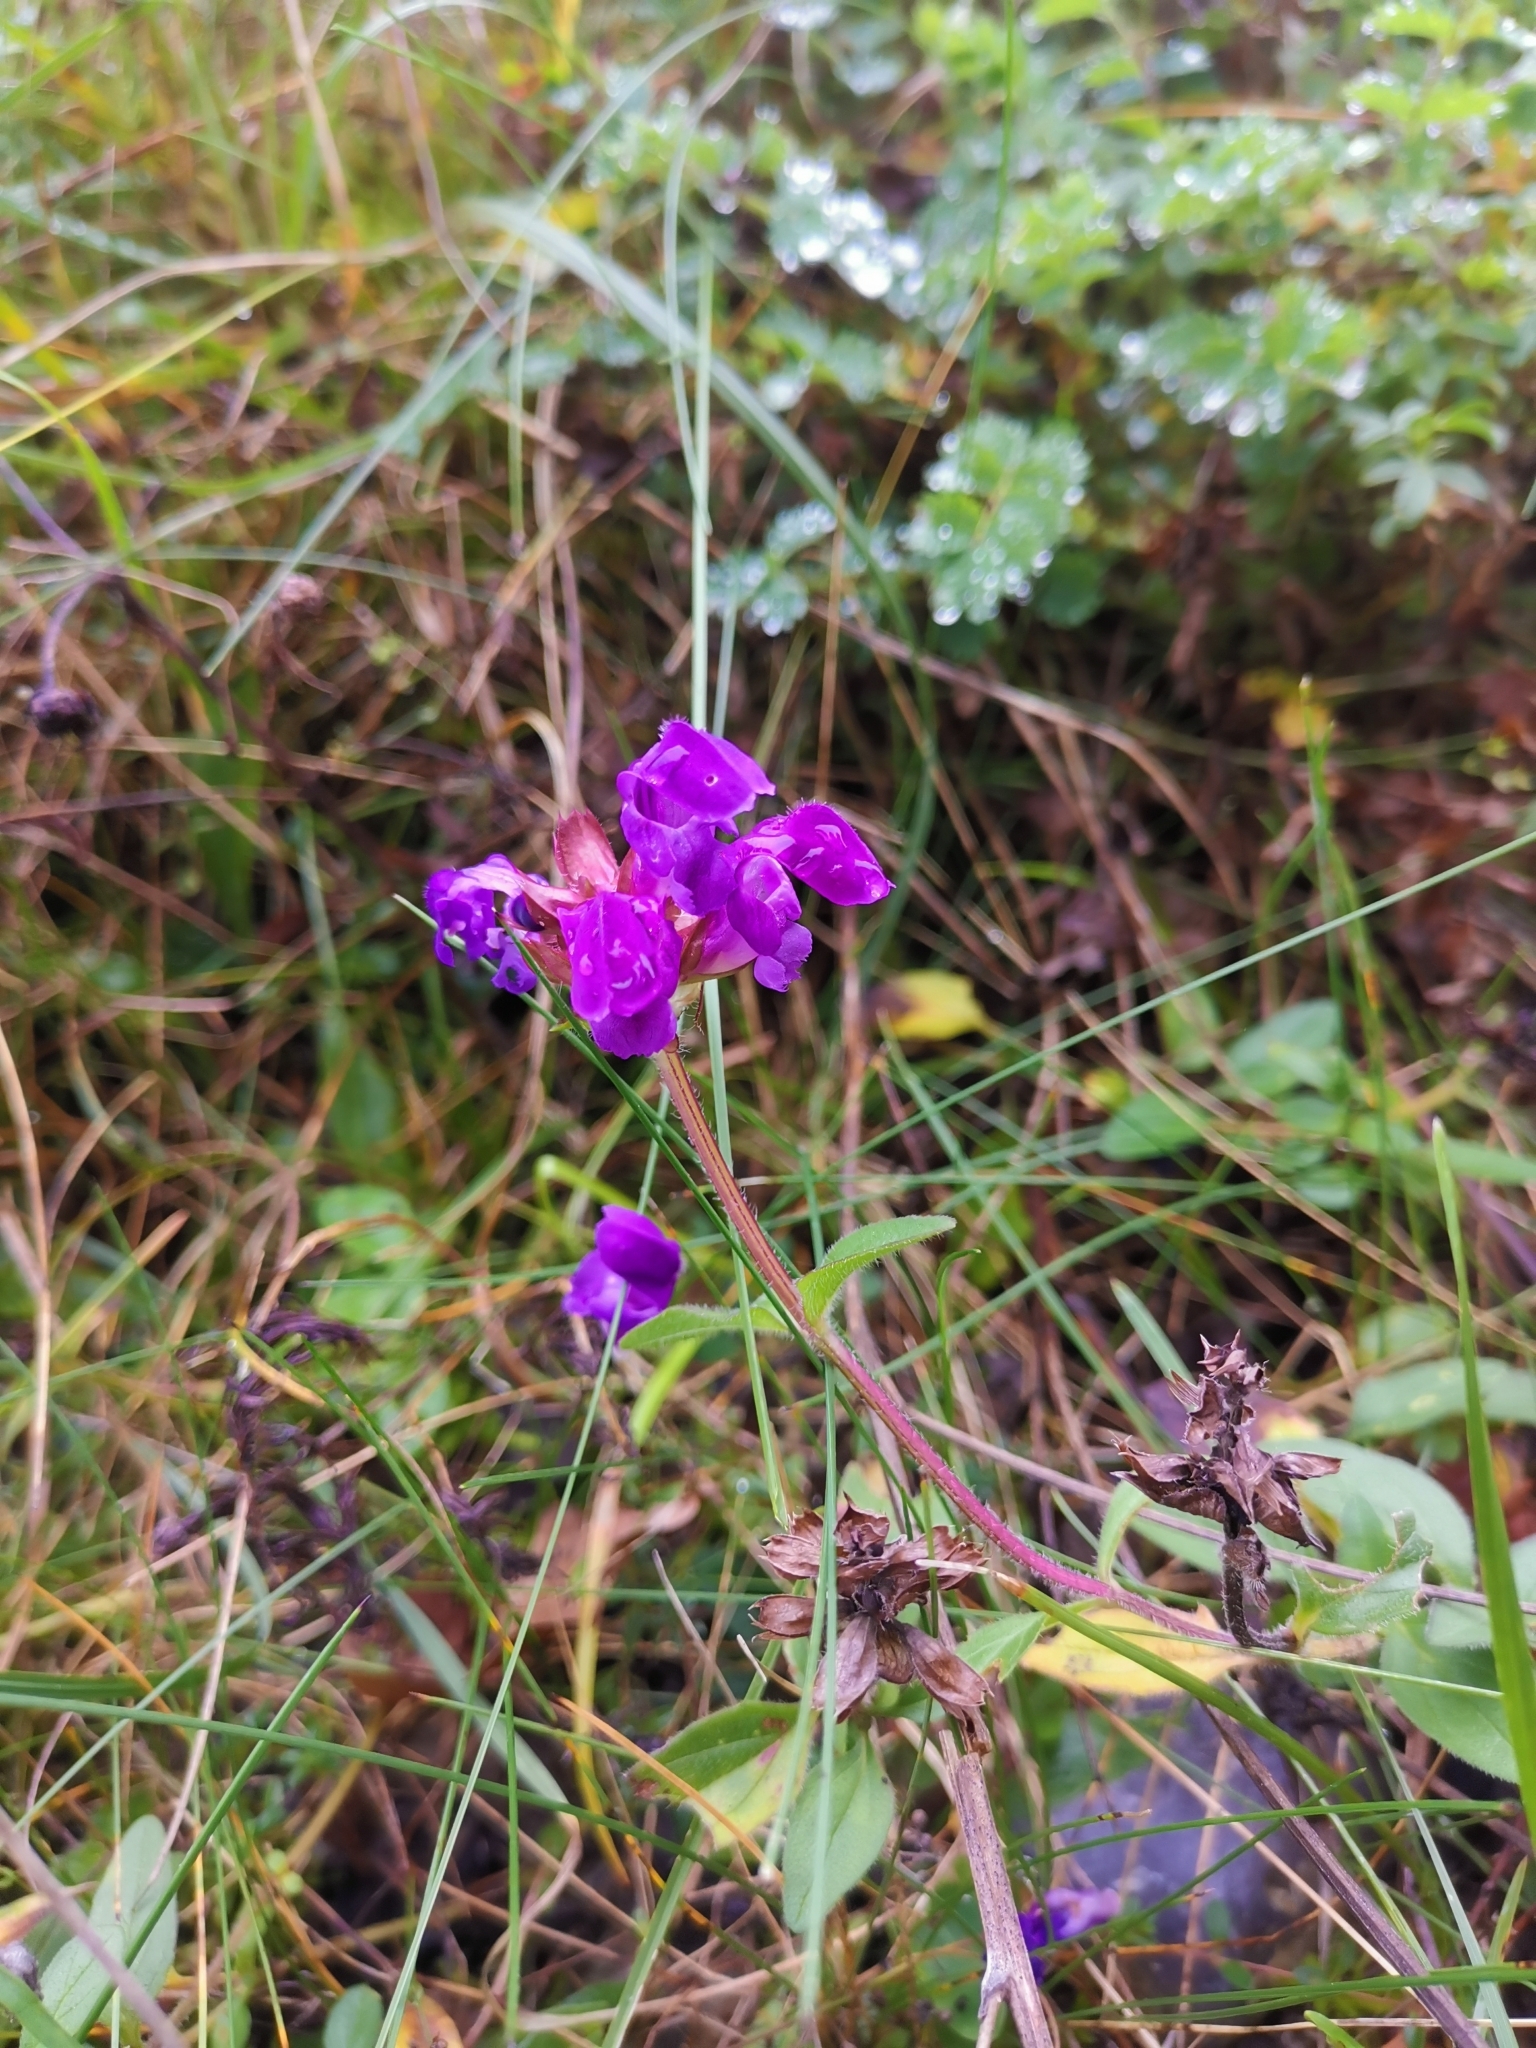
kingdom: Plantae
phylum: Tracheophyta
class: Magnoliopsida
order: Lamiales
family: Lamiaceae
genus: Prunella
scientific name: Prunella grandiflora
